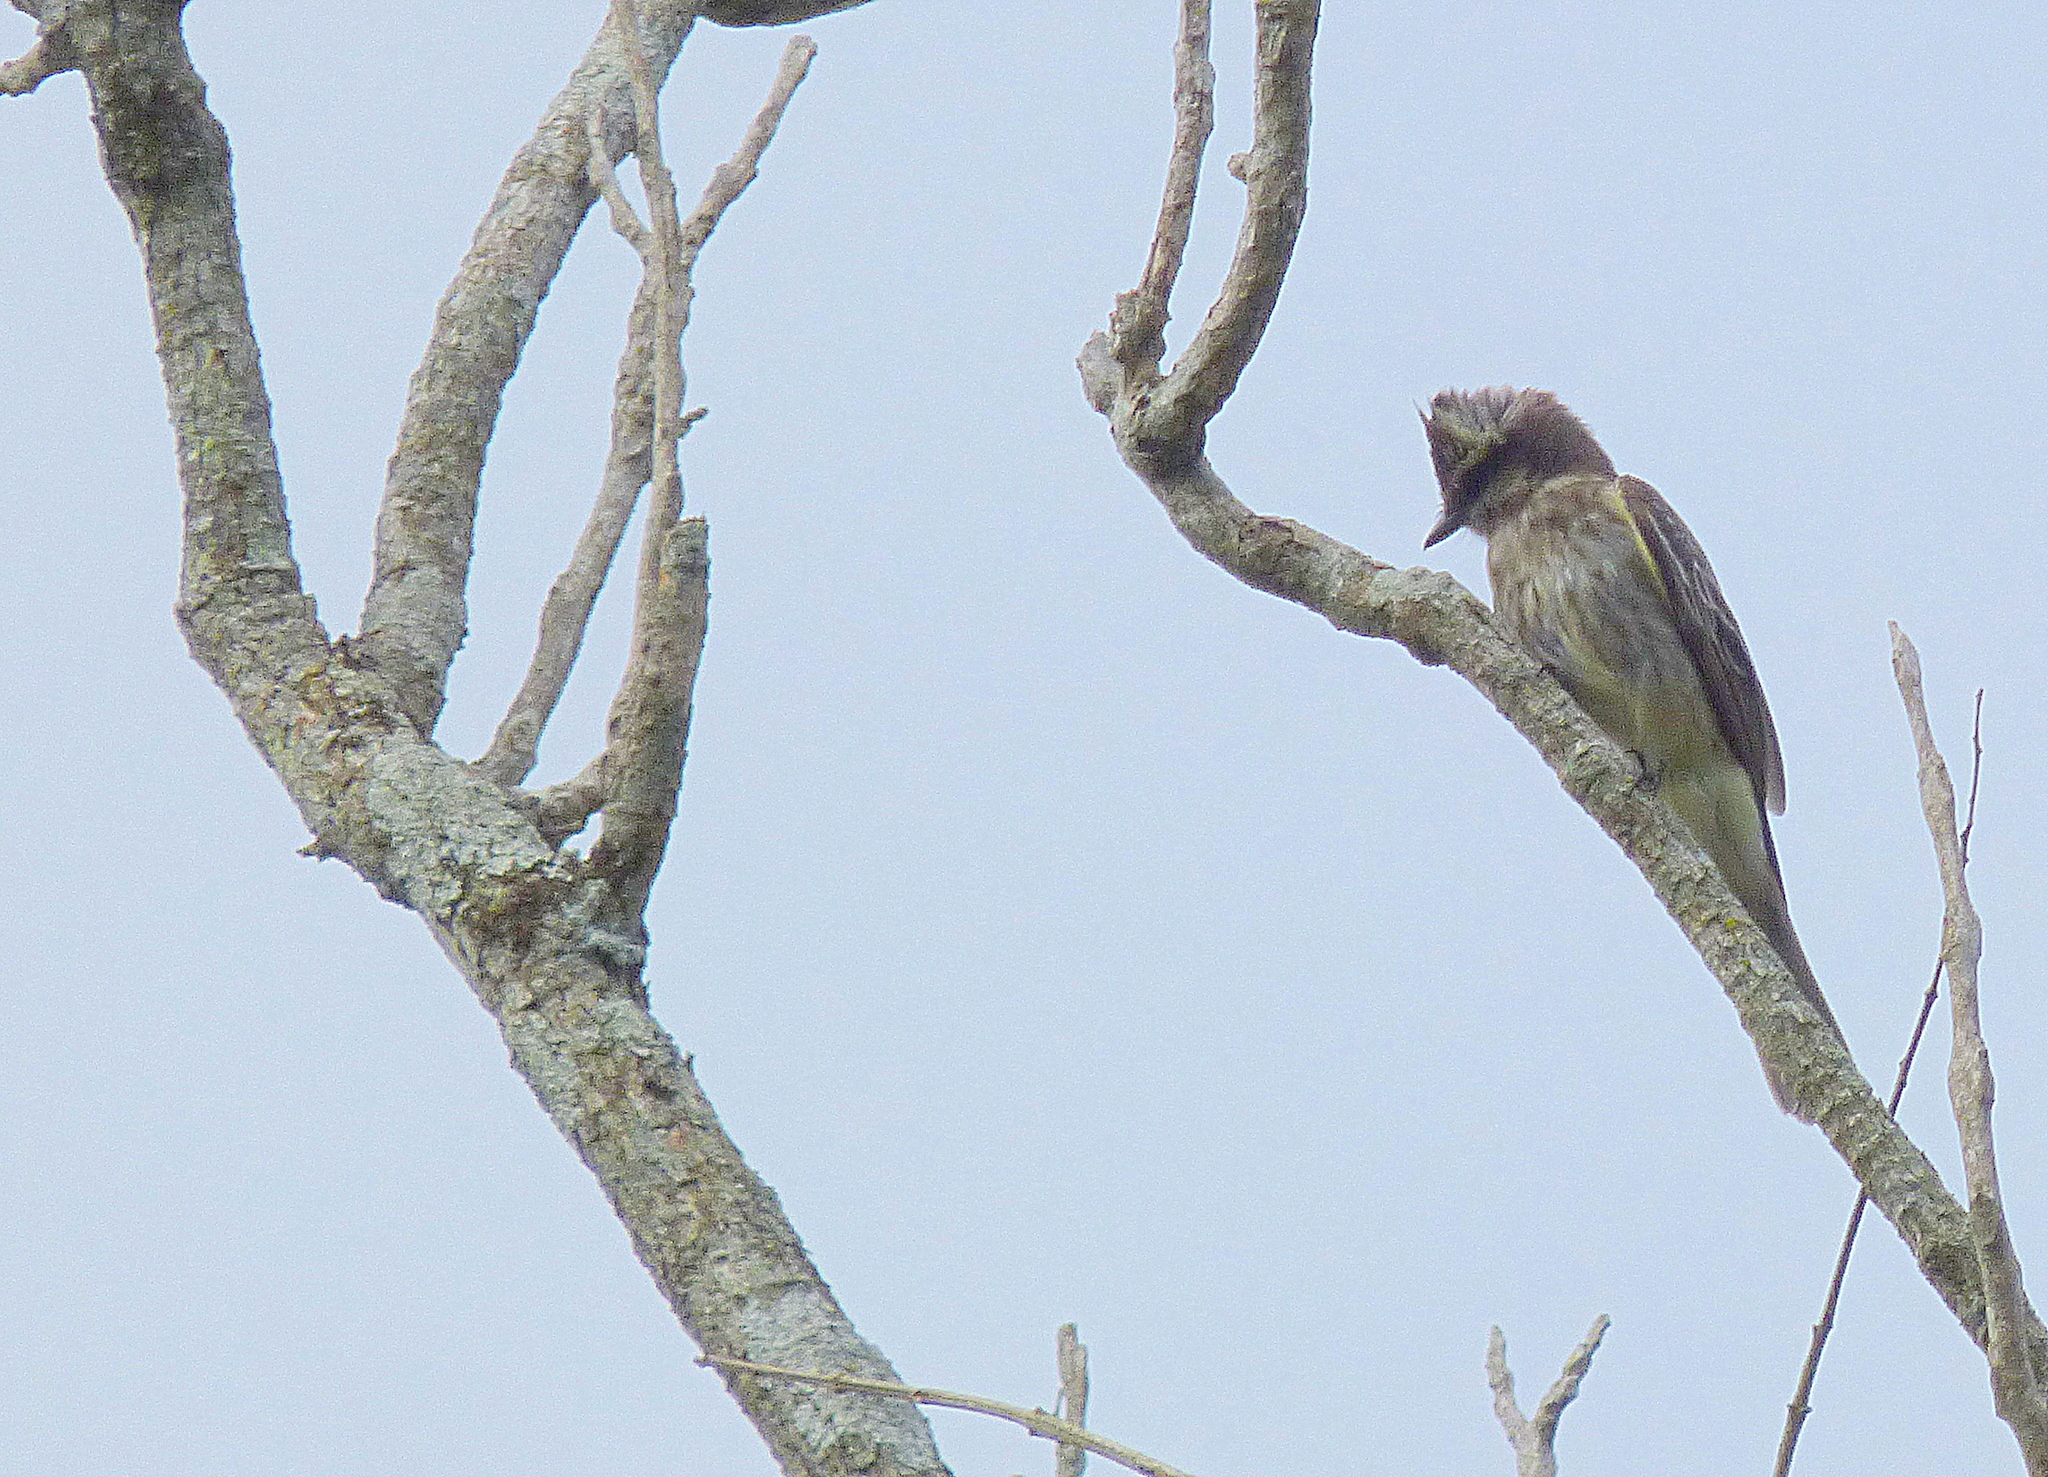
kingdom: Animalia
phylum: Chordata
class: Aves
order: Passeriformes
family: Tyrannidae
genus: Legatus
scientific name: Legatus leucophaius
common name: Piratic flycatcher
